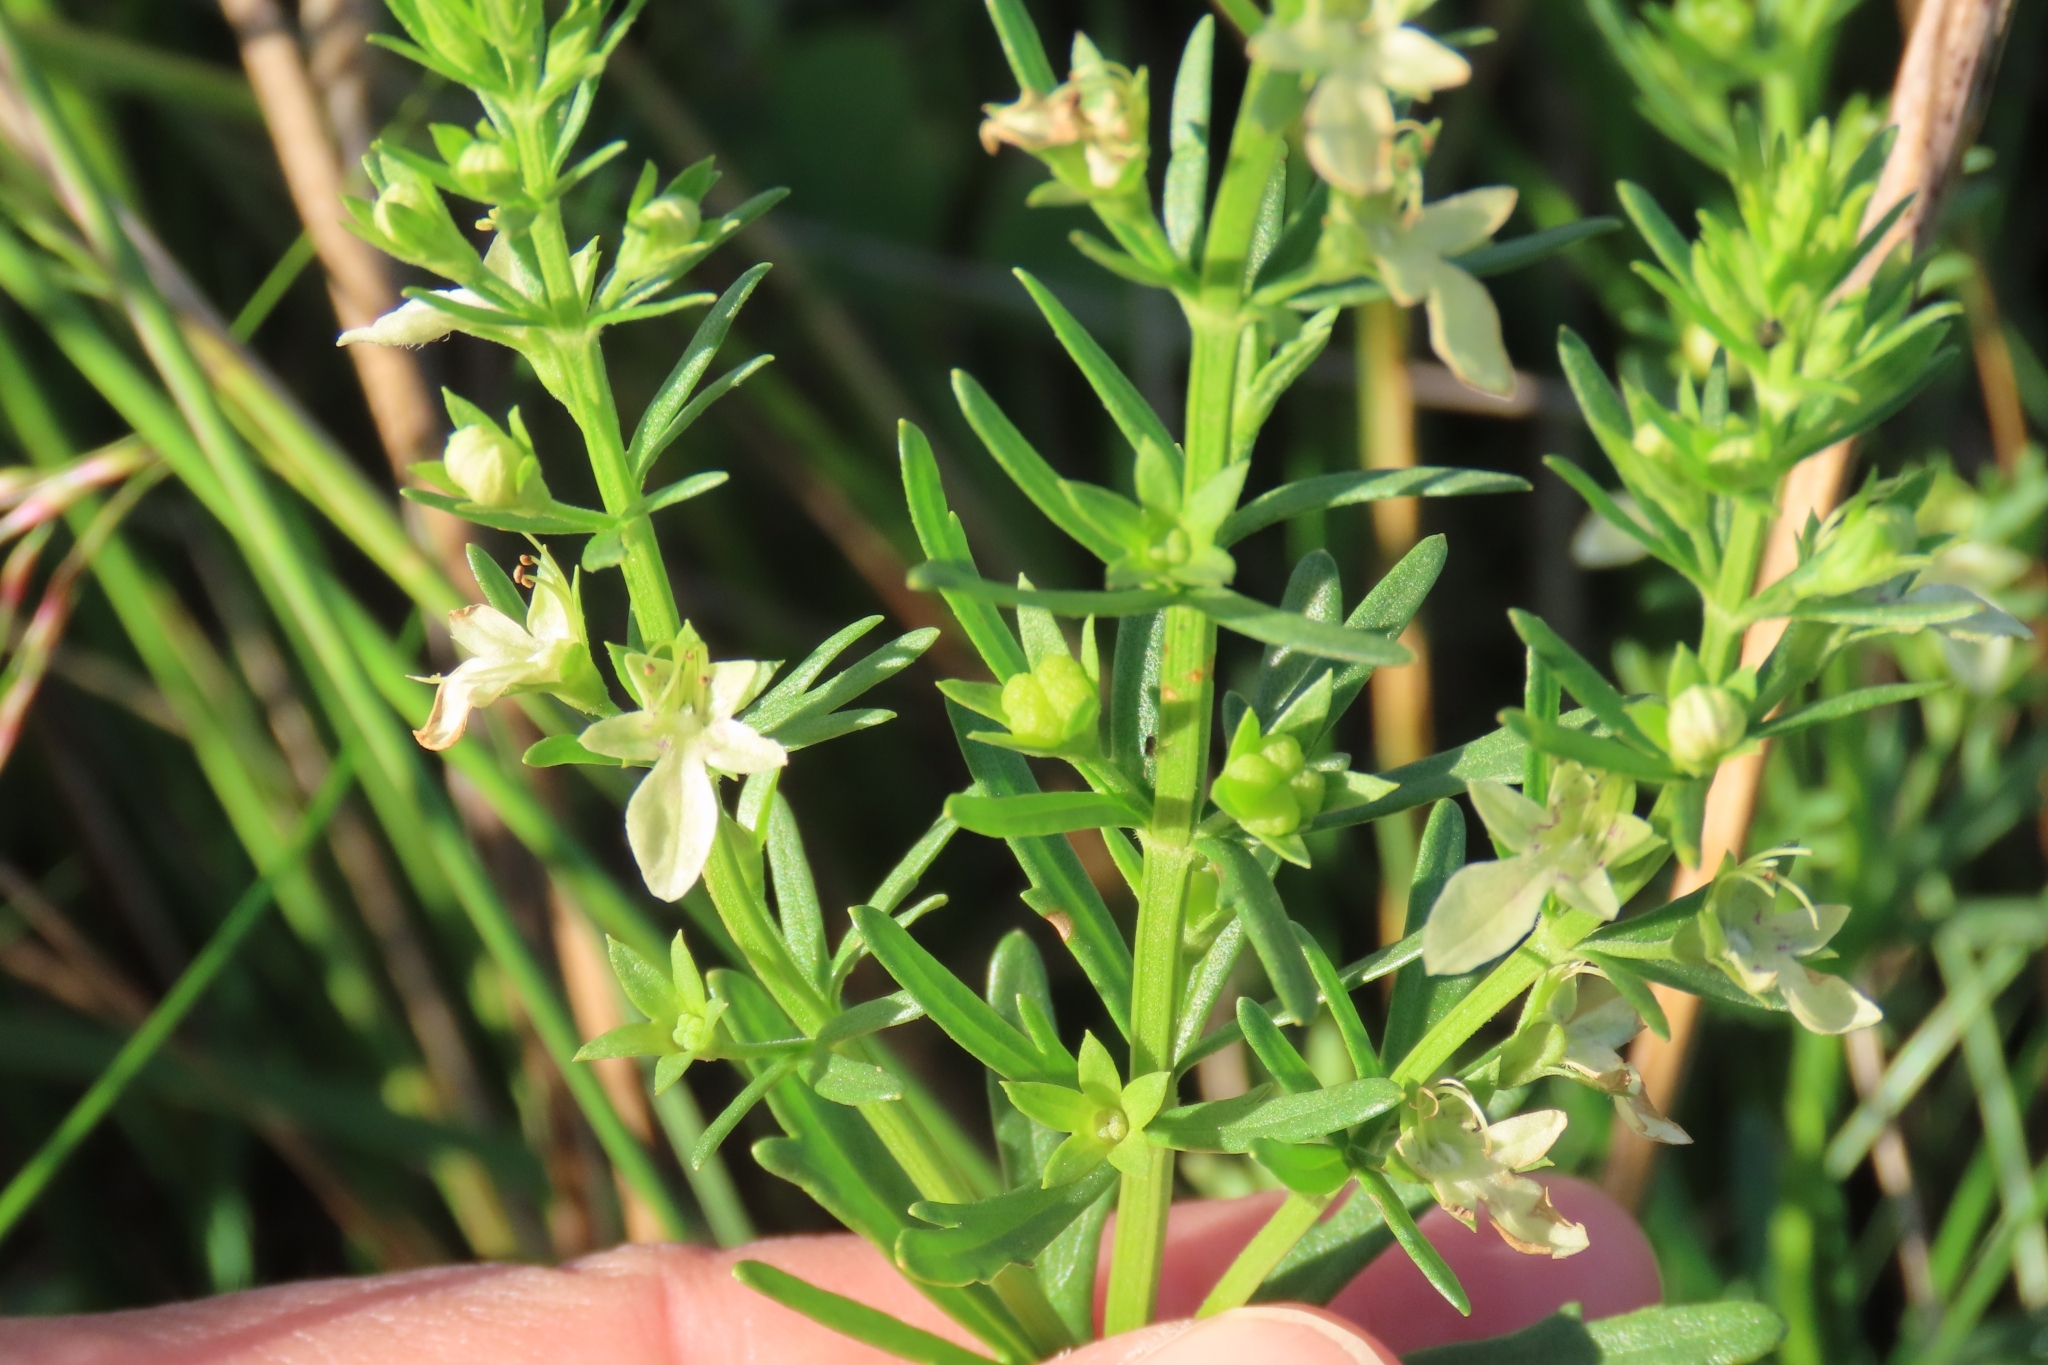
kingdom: Plantae
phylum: Tracheophyta
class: Magnoliopsida
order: Lamiales
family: Lamiaceae
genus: Teucrium
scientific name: Teucrium cubense
